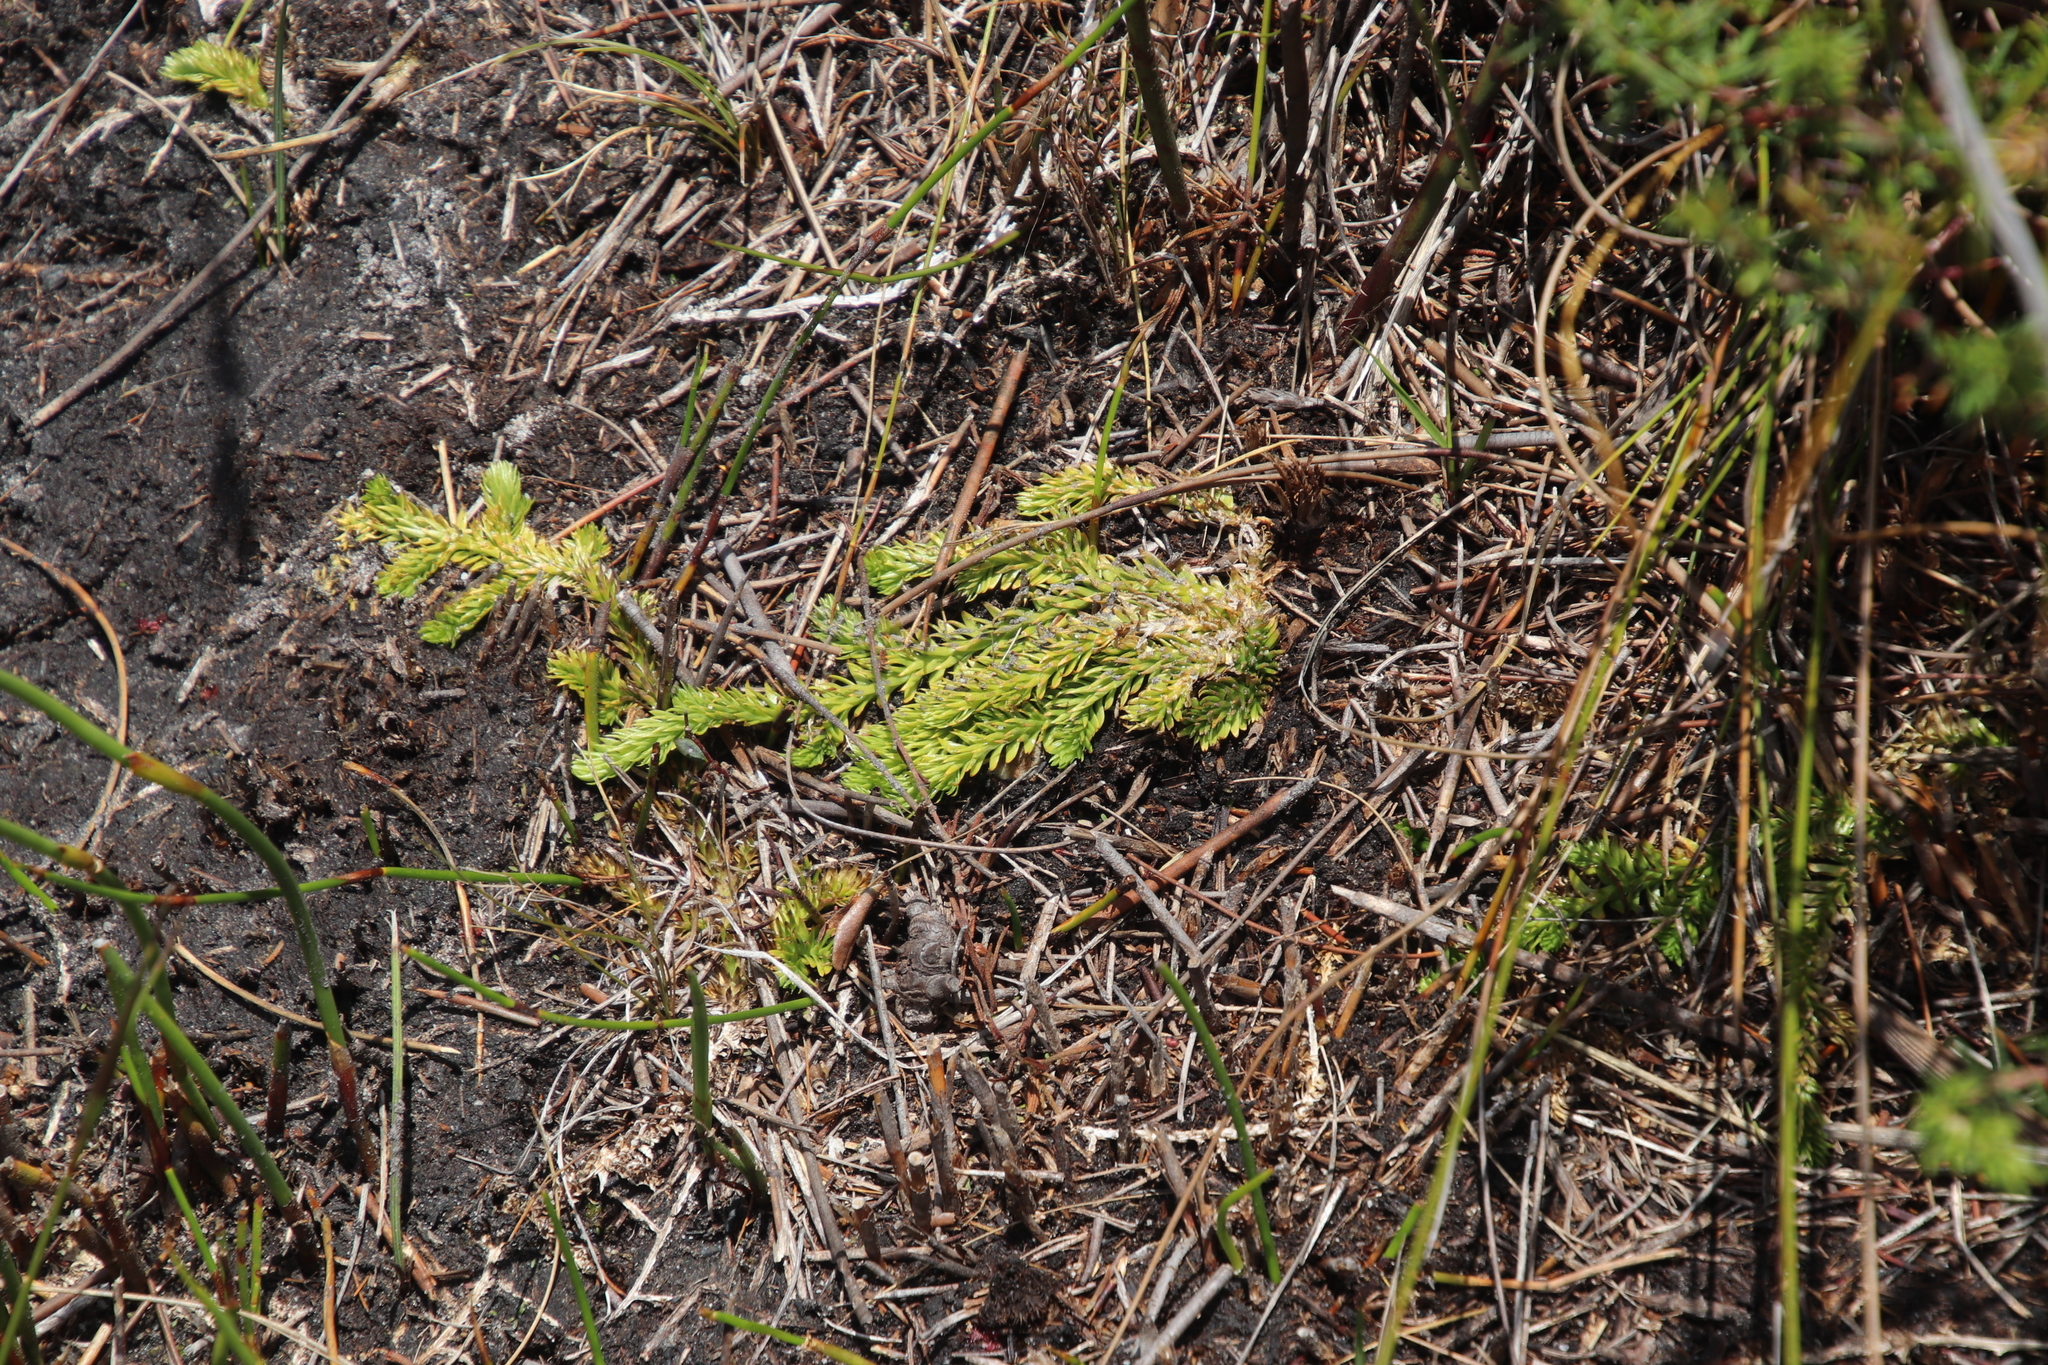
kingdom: Plantae
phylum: Tracheophyta
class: Lycopodiopsida
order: Lycopodiales
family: Lycopodiaceae
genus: Pseudolycopodiella
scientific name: Pseudolycopodiella caroliniana
